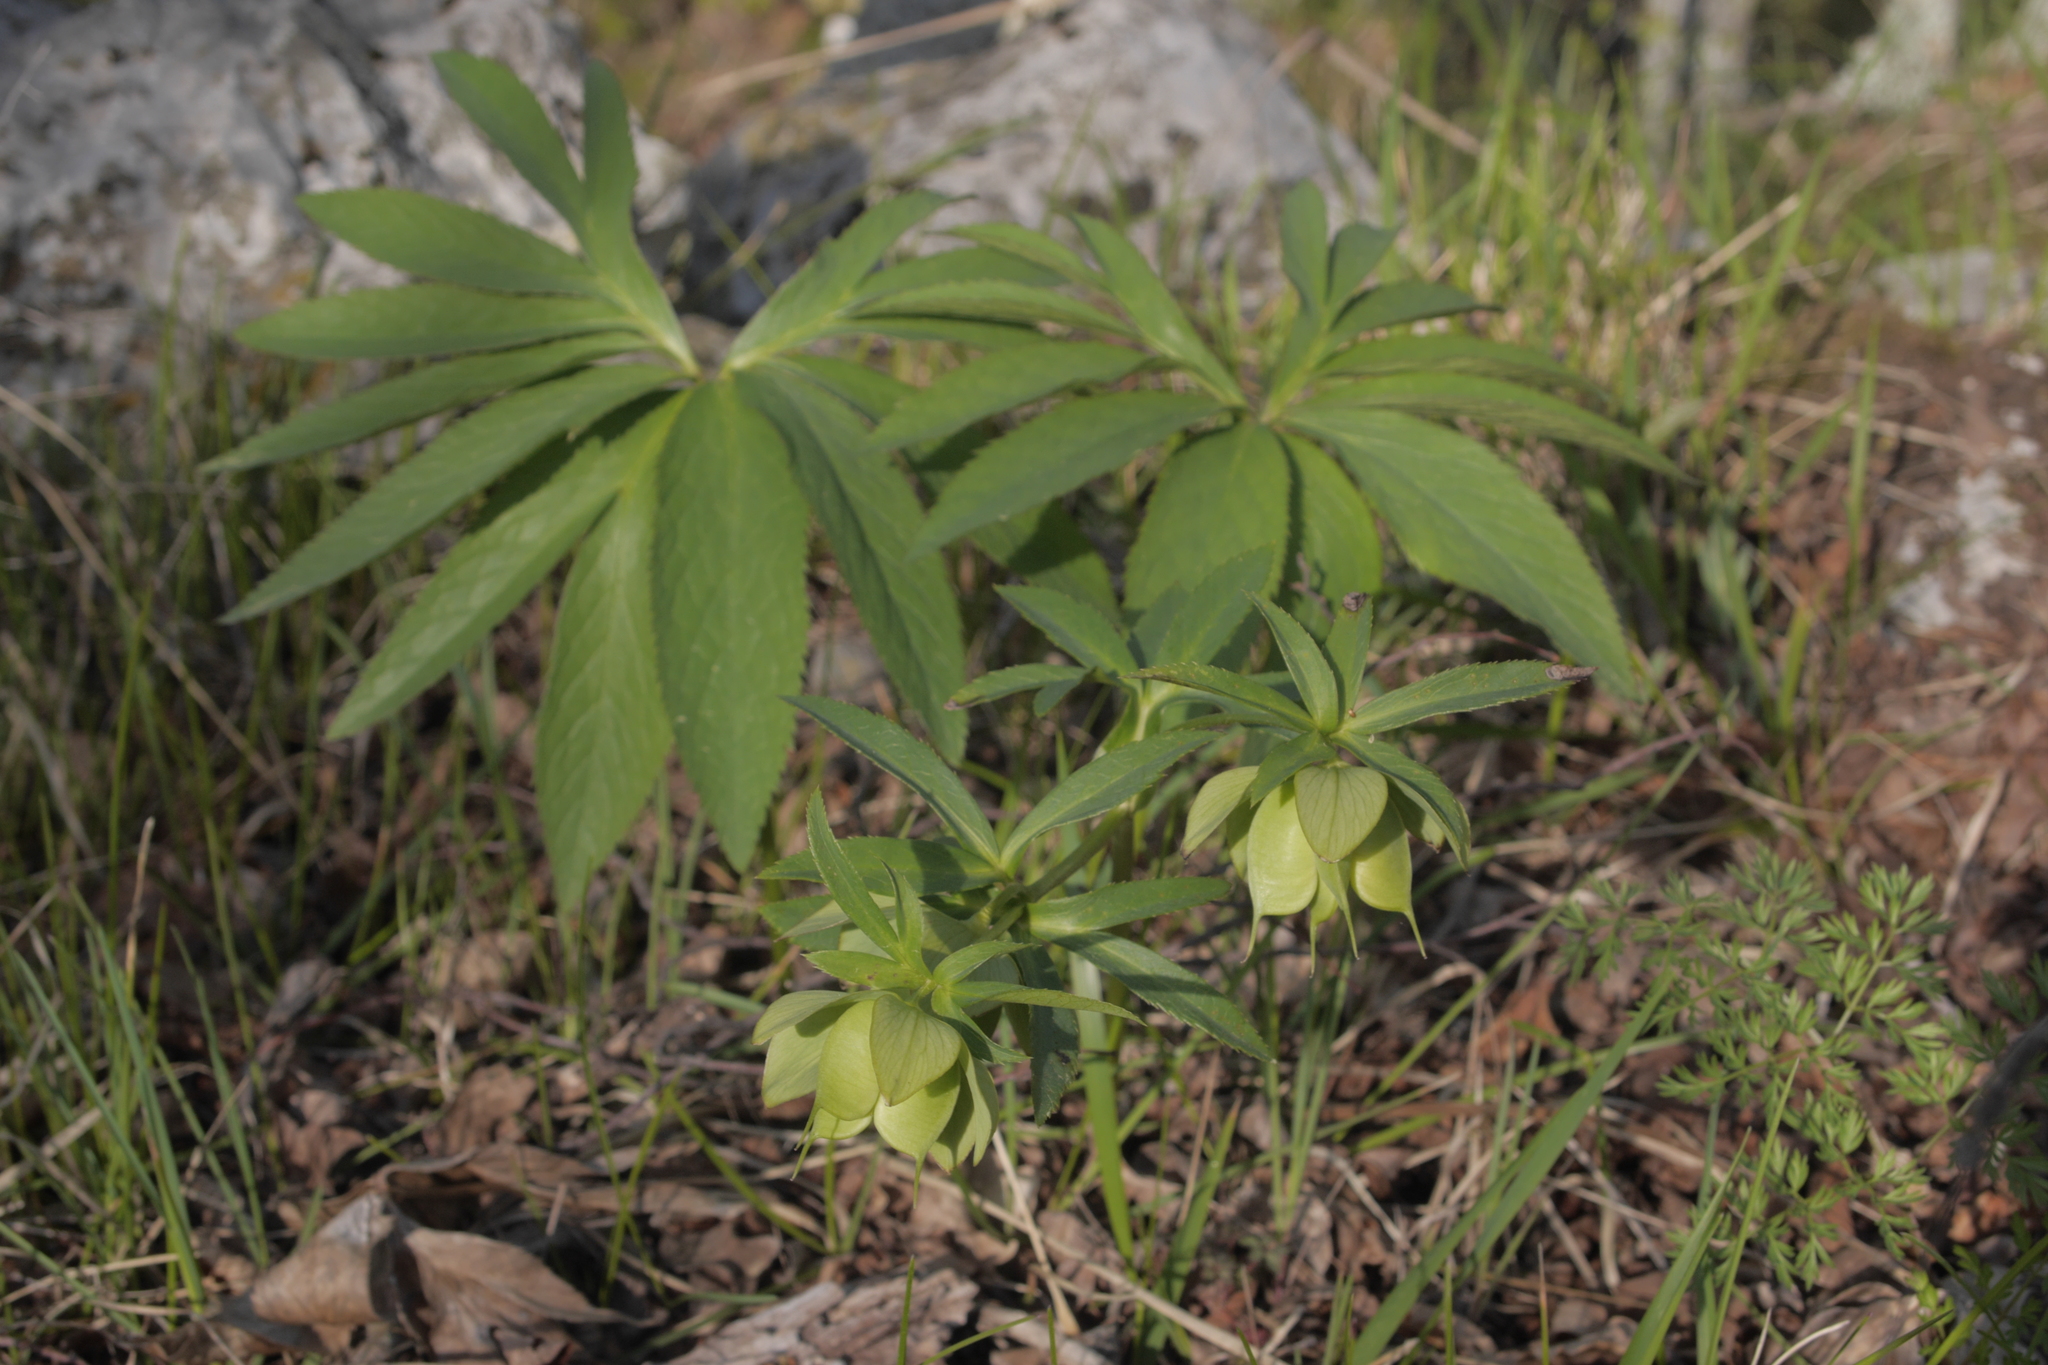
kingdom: Plantae
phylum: Tracheophyta
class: Magnoliopsida
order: Ranunculales
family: Ranunculaceae
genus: Helleborus
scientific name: Helleborus bocconei
